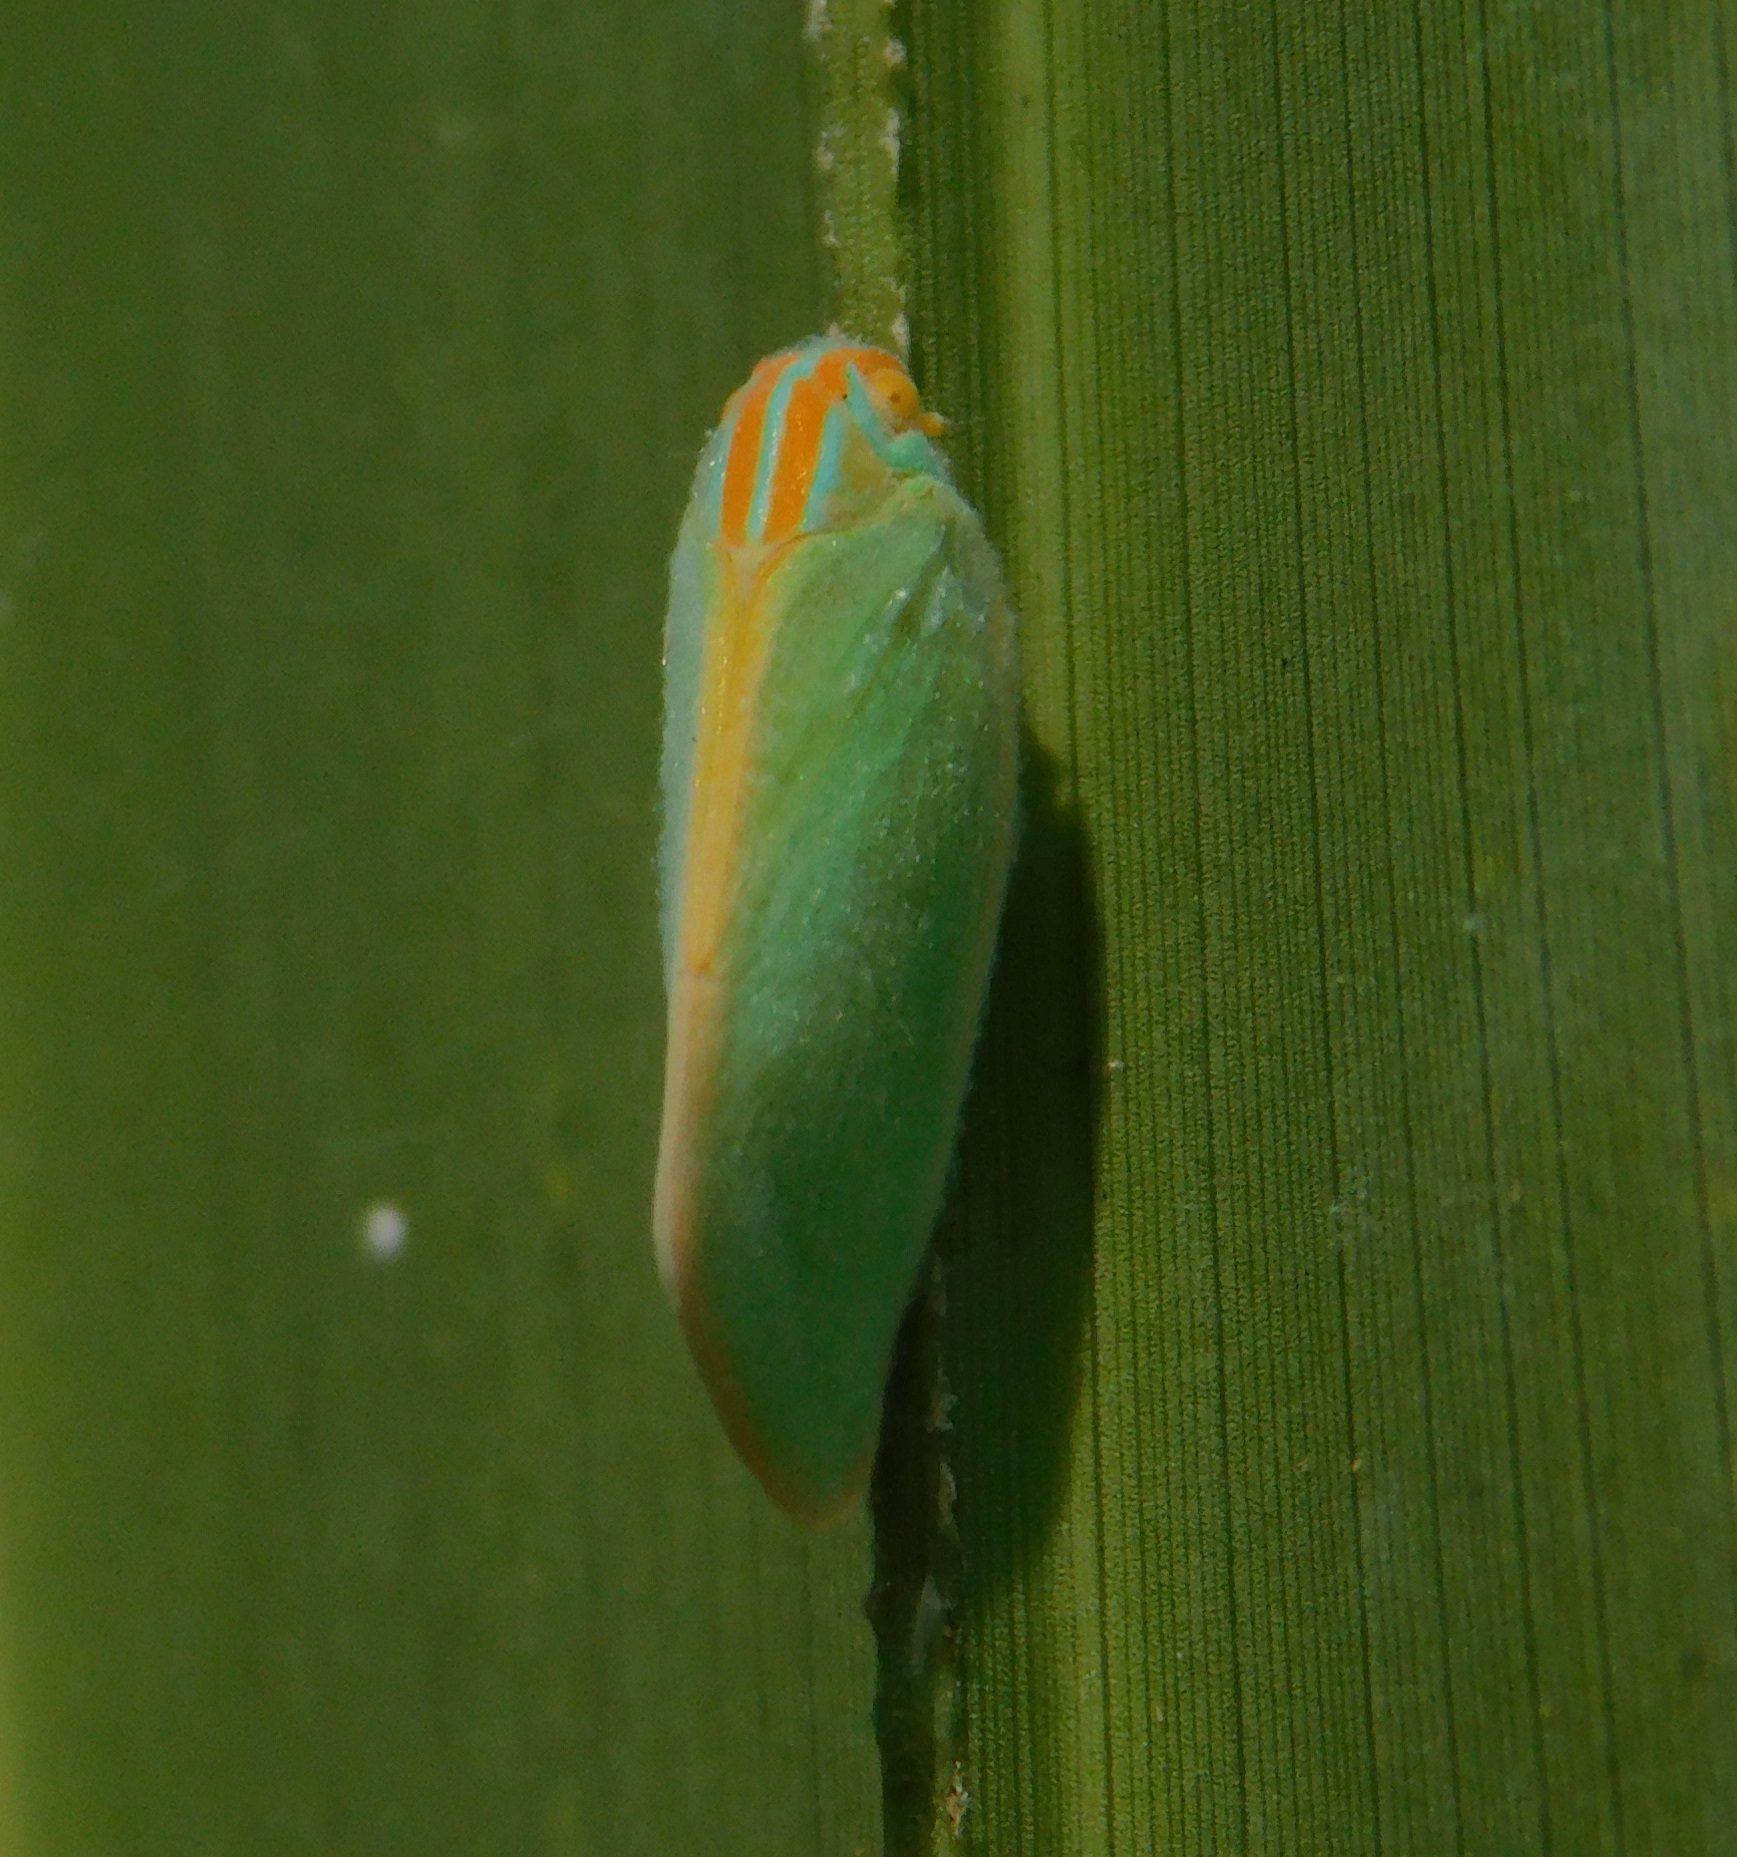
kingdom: Animalia
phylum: Arthropoda
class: Insecta
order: Hemiptera
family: Flatidae
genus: Ormenaria
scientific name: Ormenaria rufifascia
